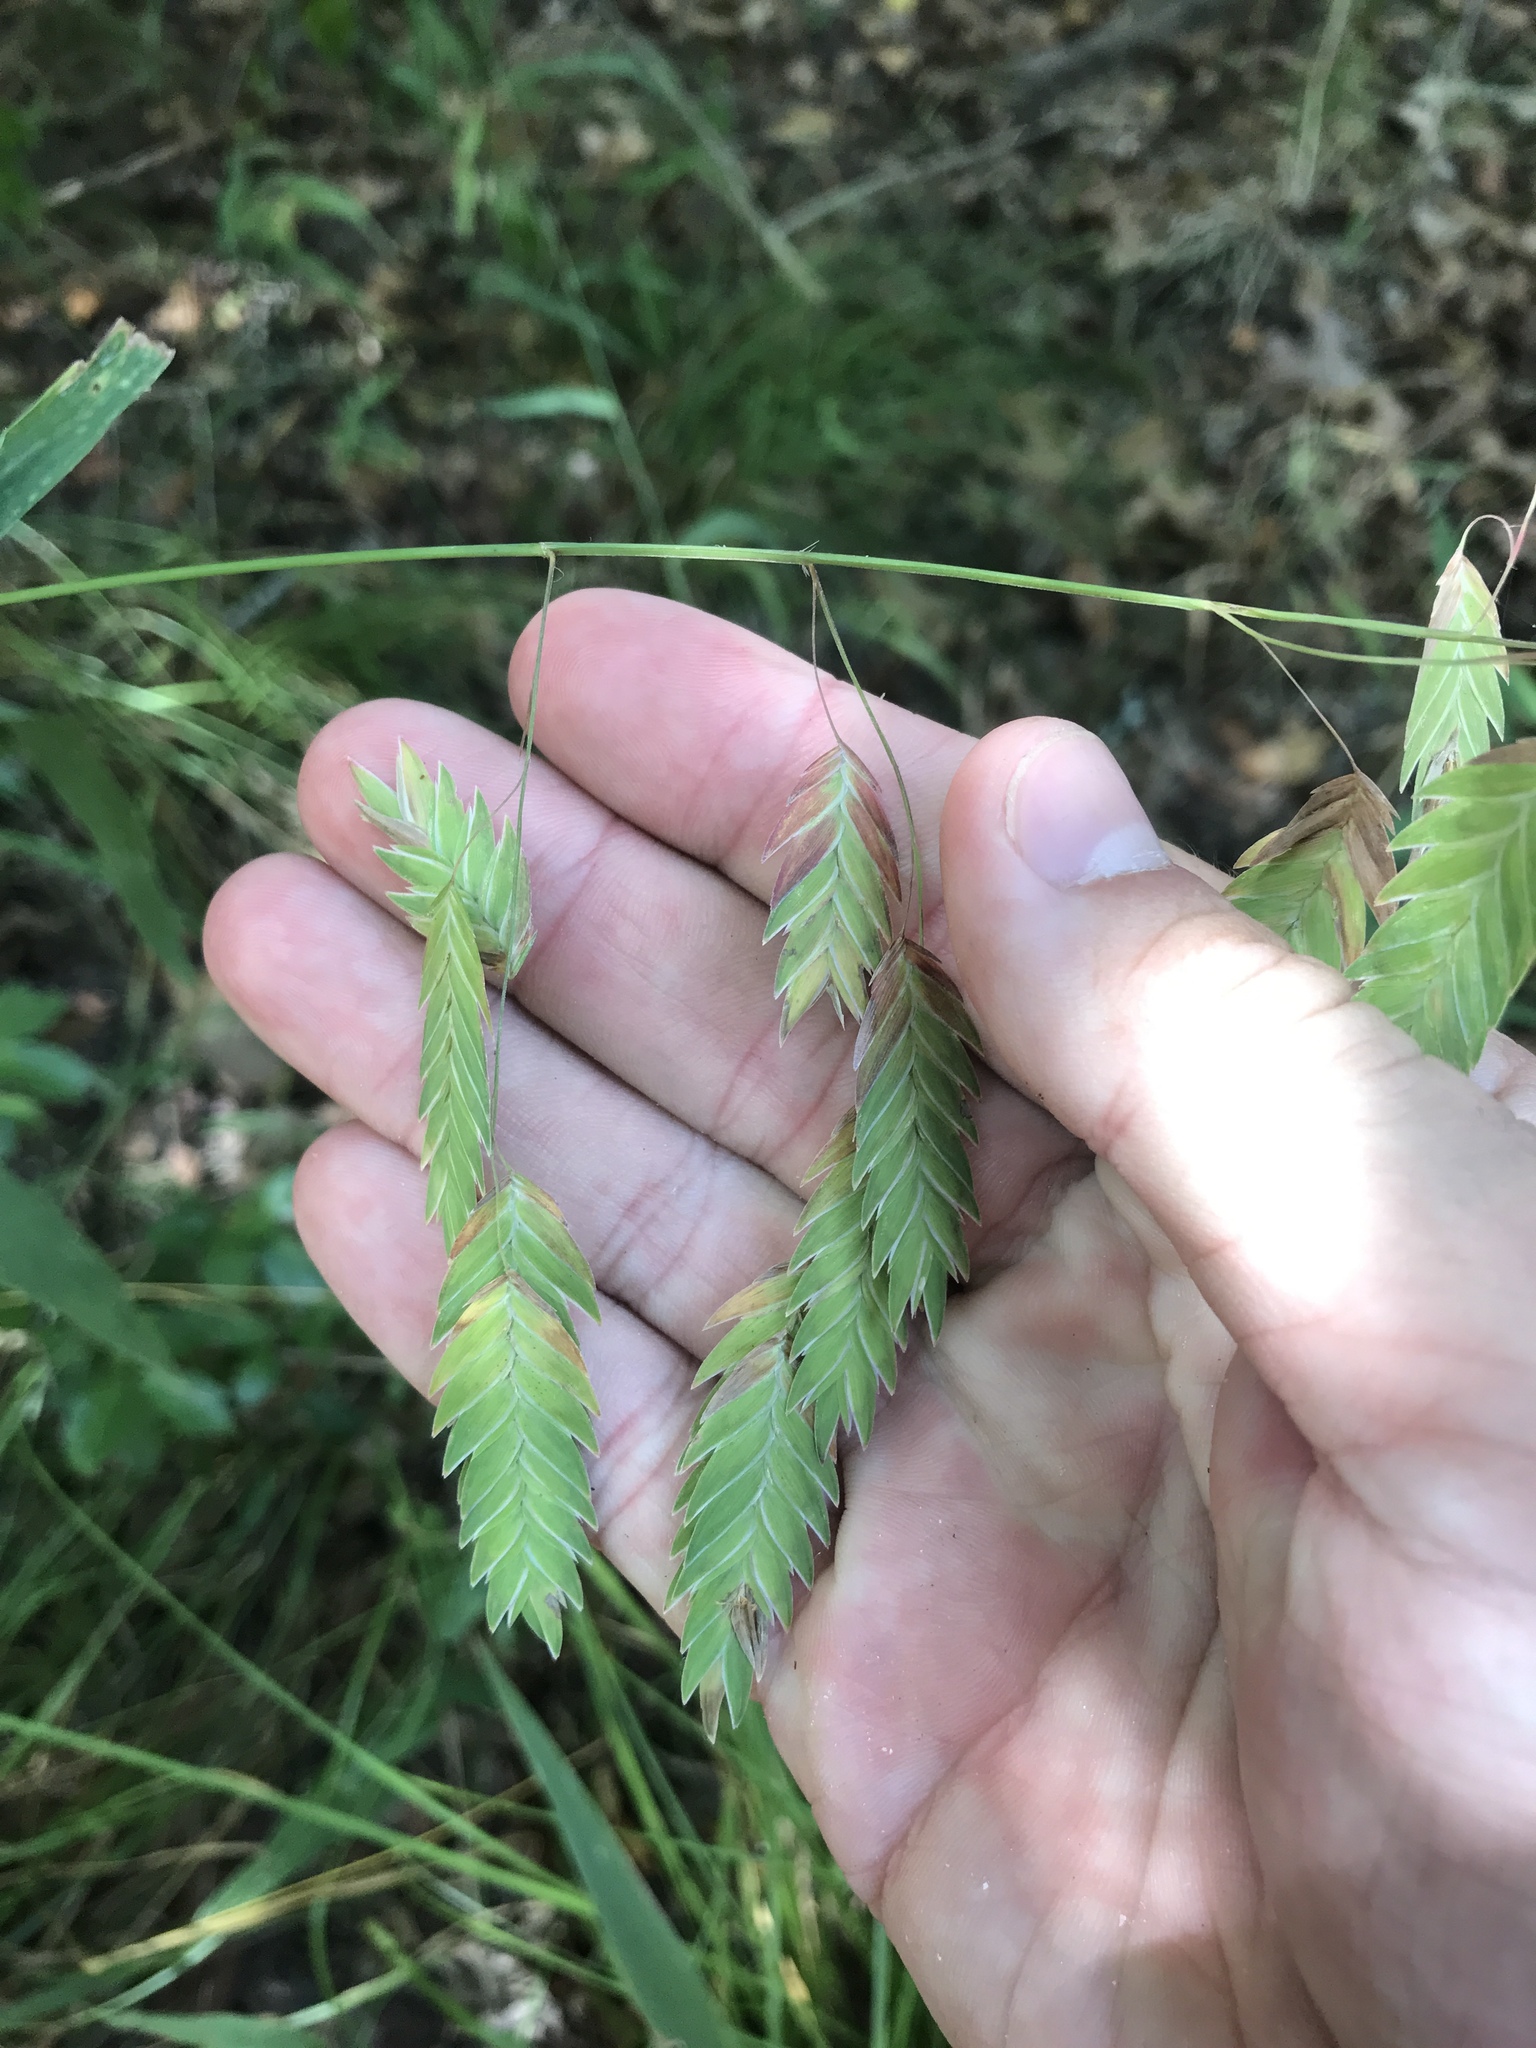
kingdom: Plantae
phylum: Tracheophyta
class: Liliopsida
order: Poales
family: Poaceae
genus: Chasmanthium
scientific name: Chasmanthium latifolium
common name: Broad-leaved chasmanthium
